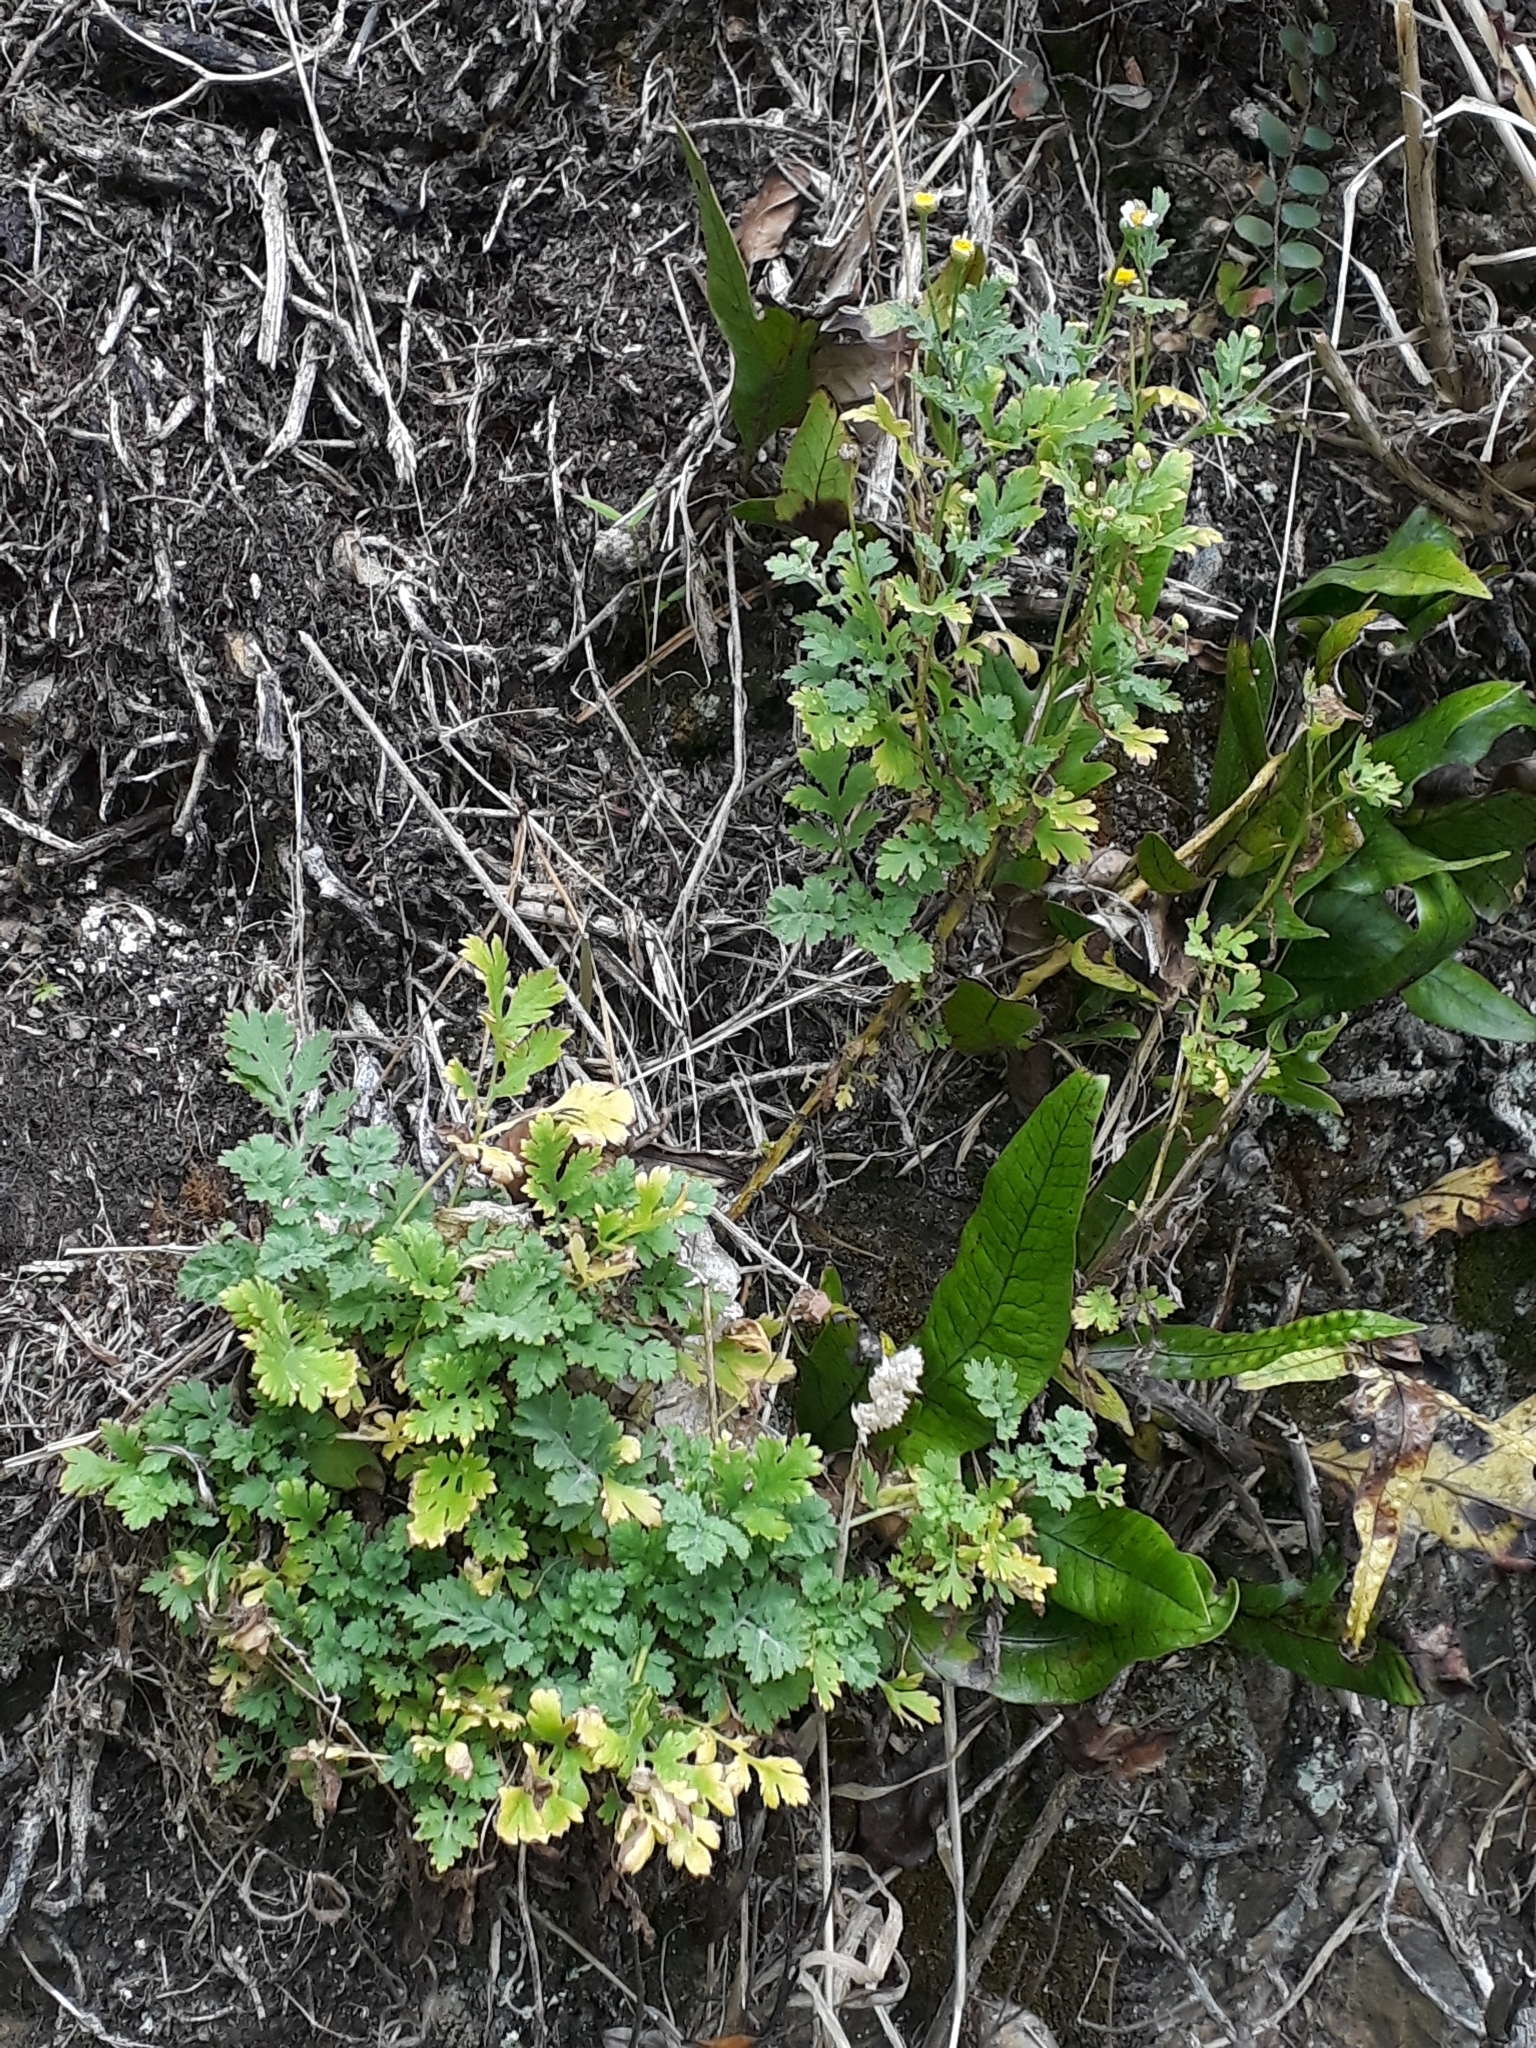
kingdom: Plantae
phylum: Tracheophyta
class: Magnoliopsida
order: Asterales
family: Asteraceae
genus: Tanacetum
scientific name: Tanacetum parthenium
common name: Feverfew
